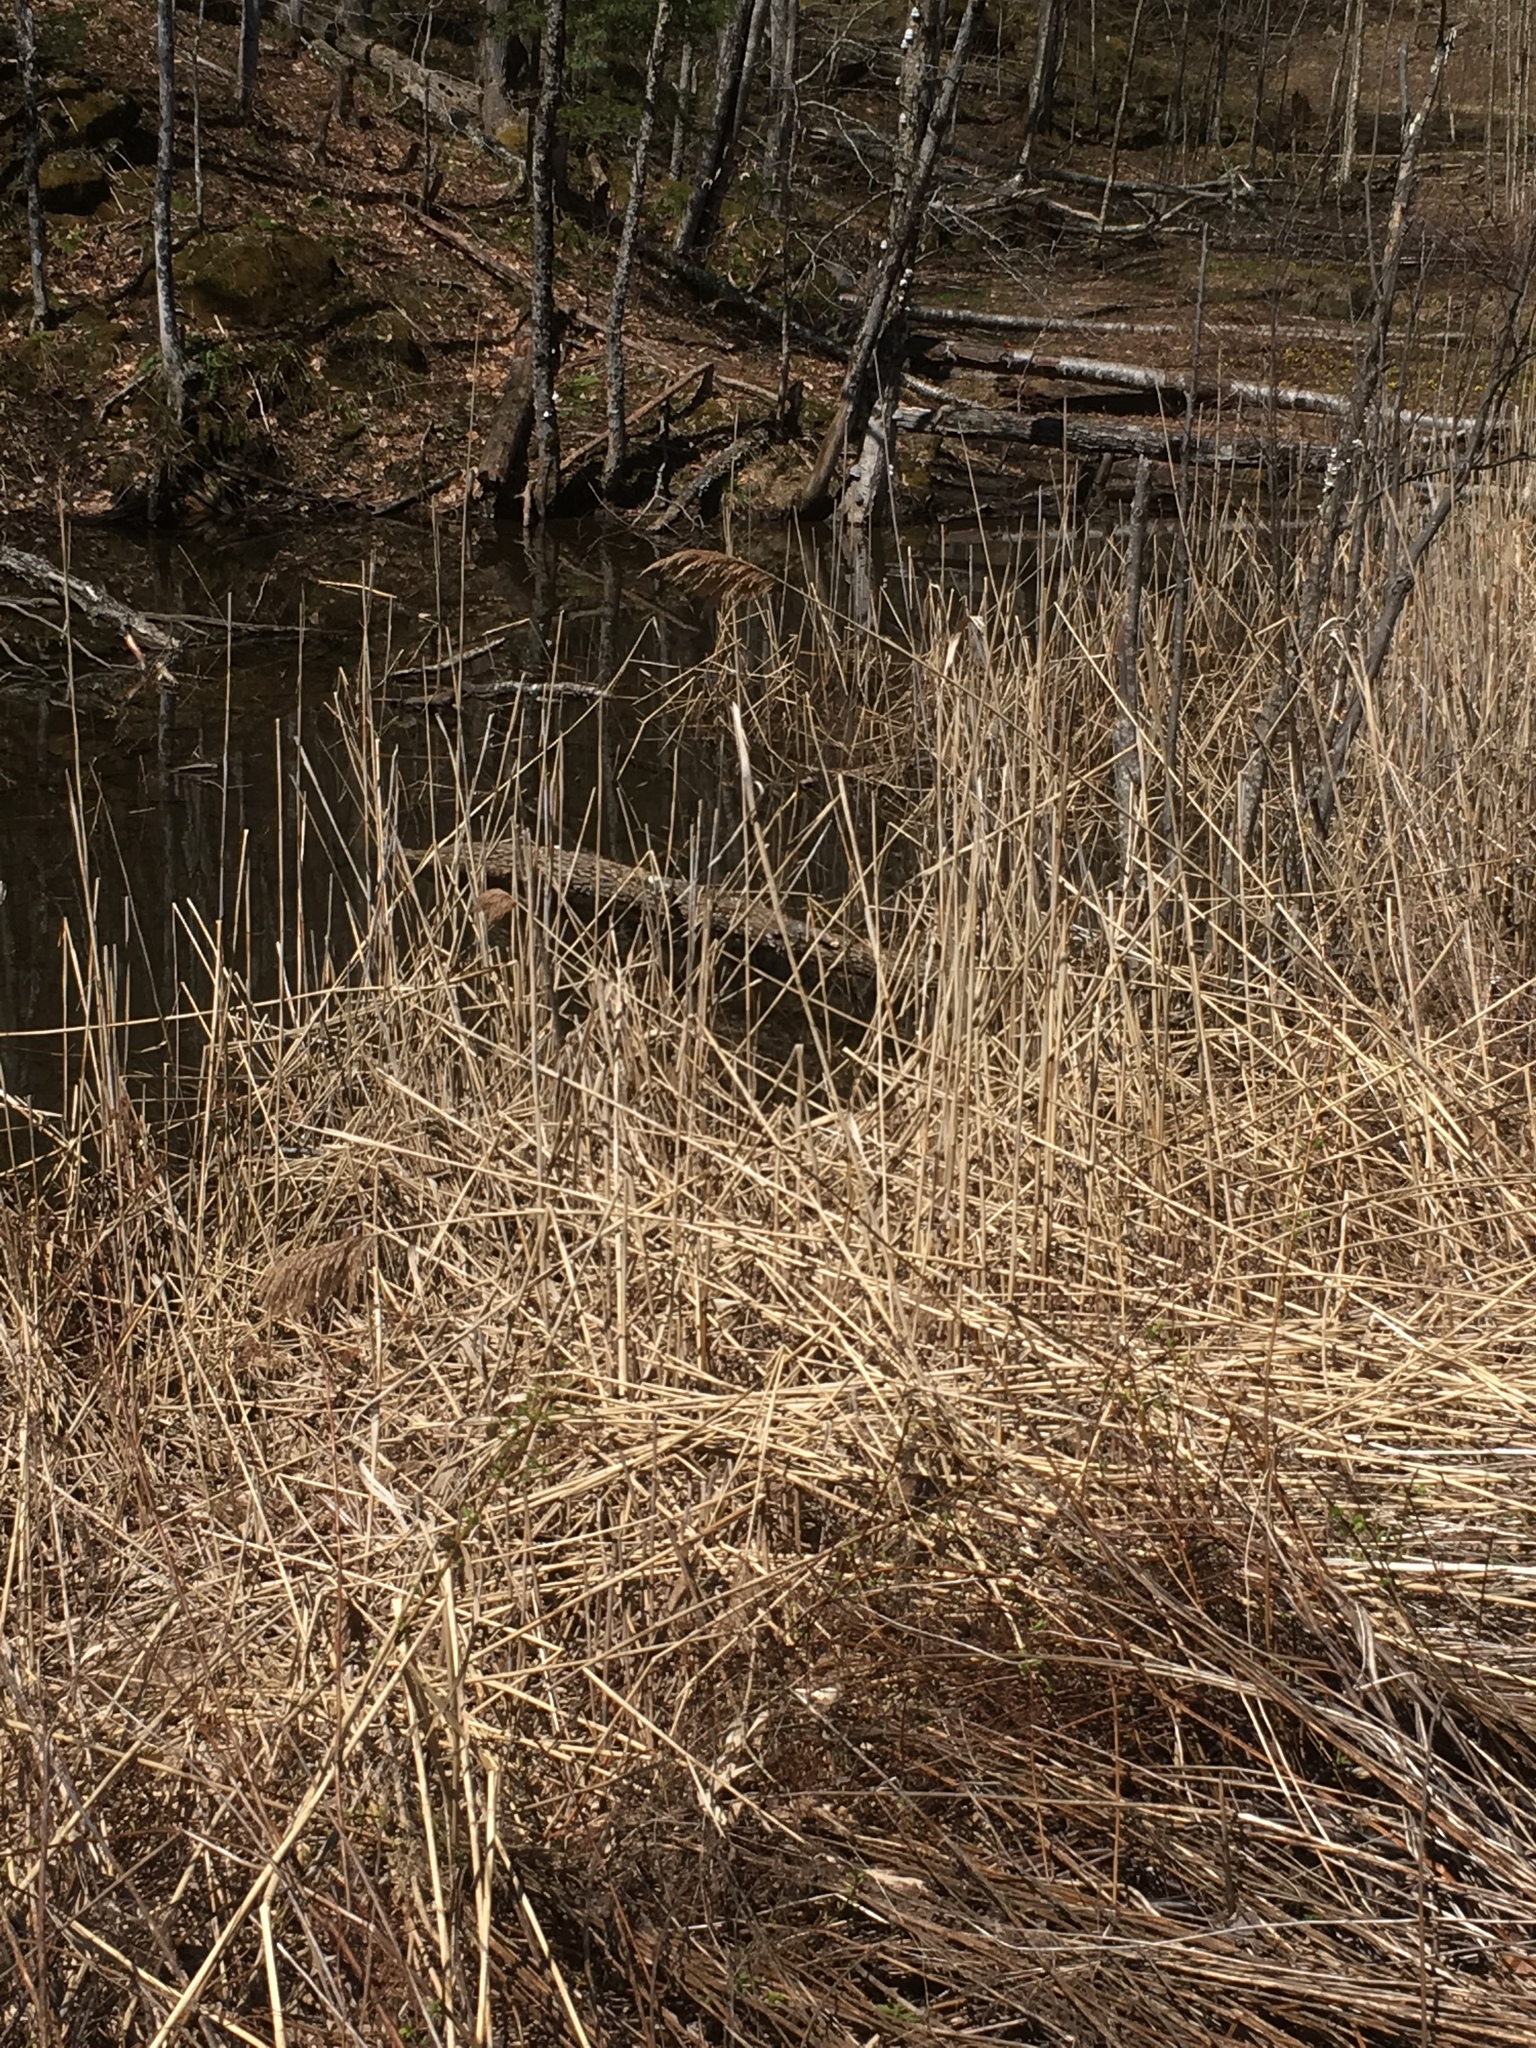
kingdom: Plantae
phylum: Tracheophyta
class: Liliopsida
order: Poales
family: Poaceae
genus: Phragmites
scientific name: Phragmites australis
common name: Common reed
